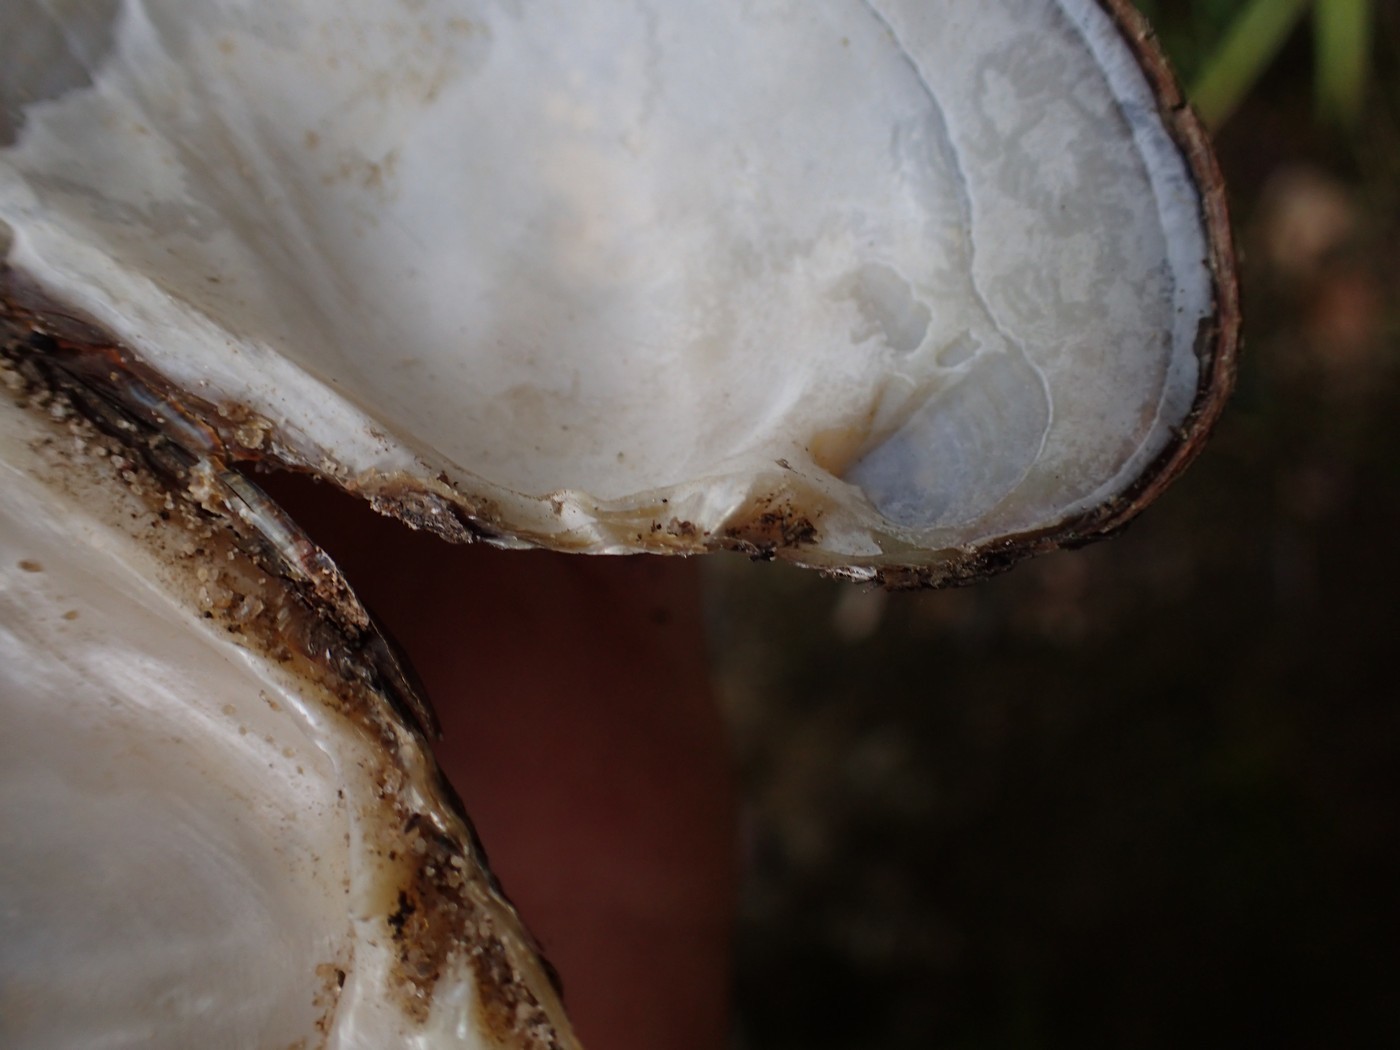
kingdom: Animalia
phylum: Mollusca
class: Bivalvia
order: Unionida
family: Unionidae
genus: Lasmigona
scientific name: Lasmigona costata
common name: Flutedshell
